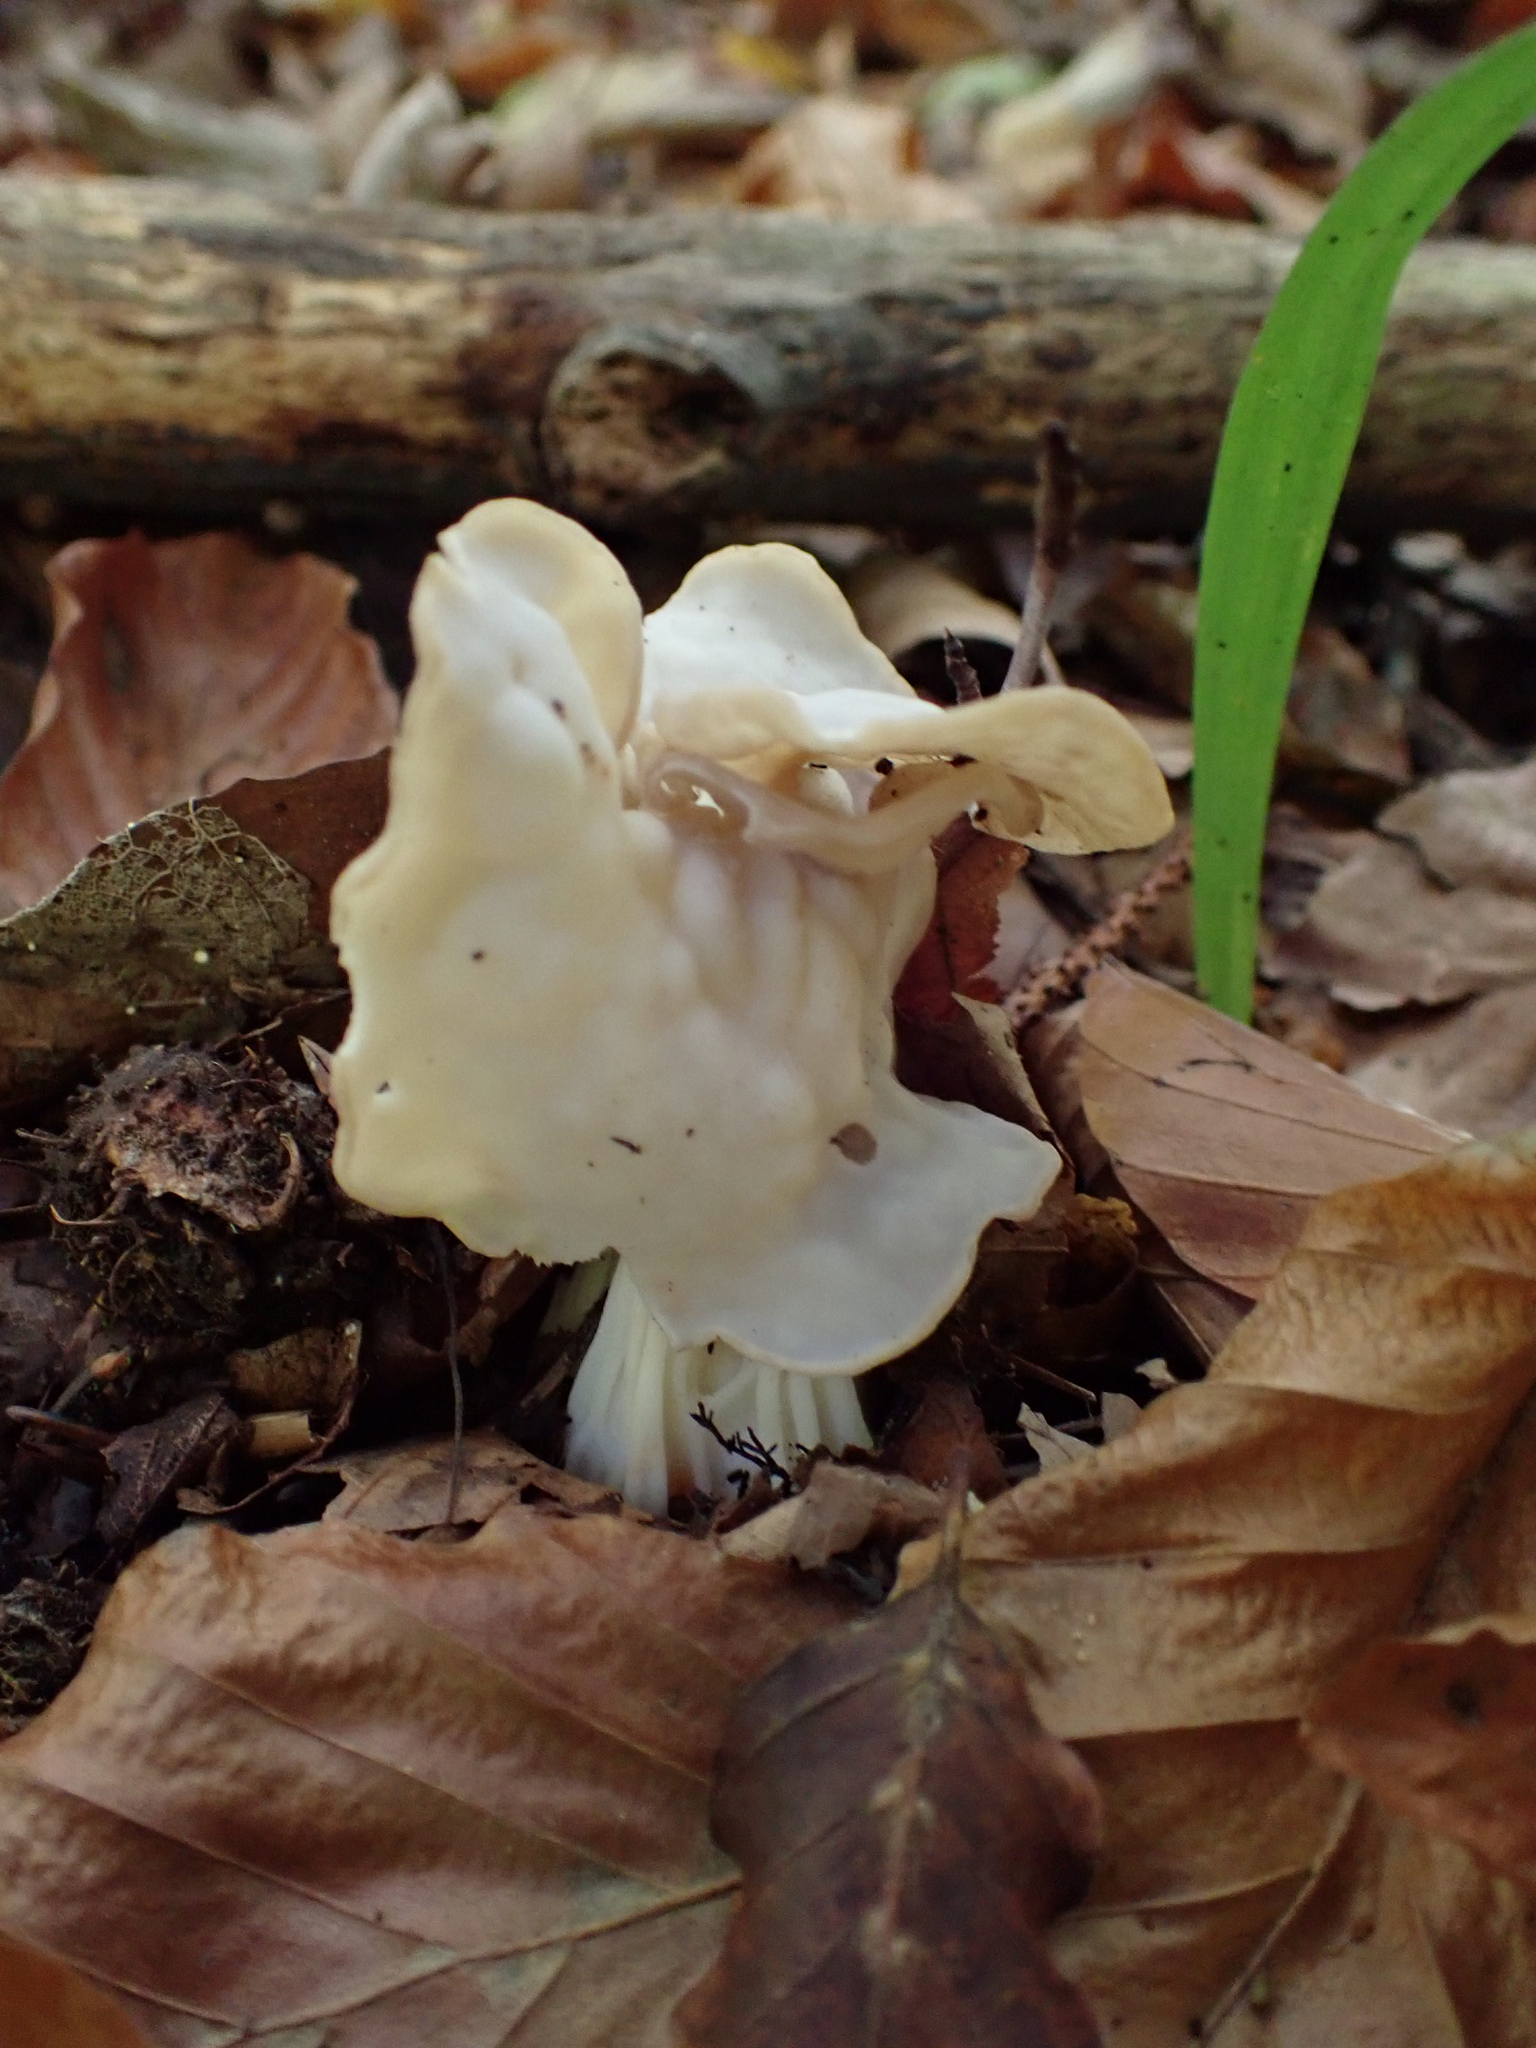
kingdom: Fungi
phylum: Ascomycota
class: Pezizomycetes
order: Pezizales
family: Helvellaceae
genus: Helvella
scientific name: Helvella crispa
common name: White saddle
